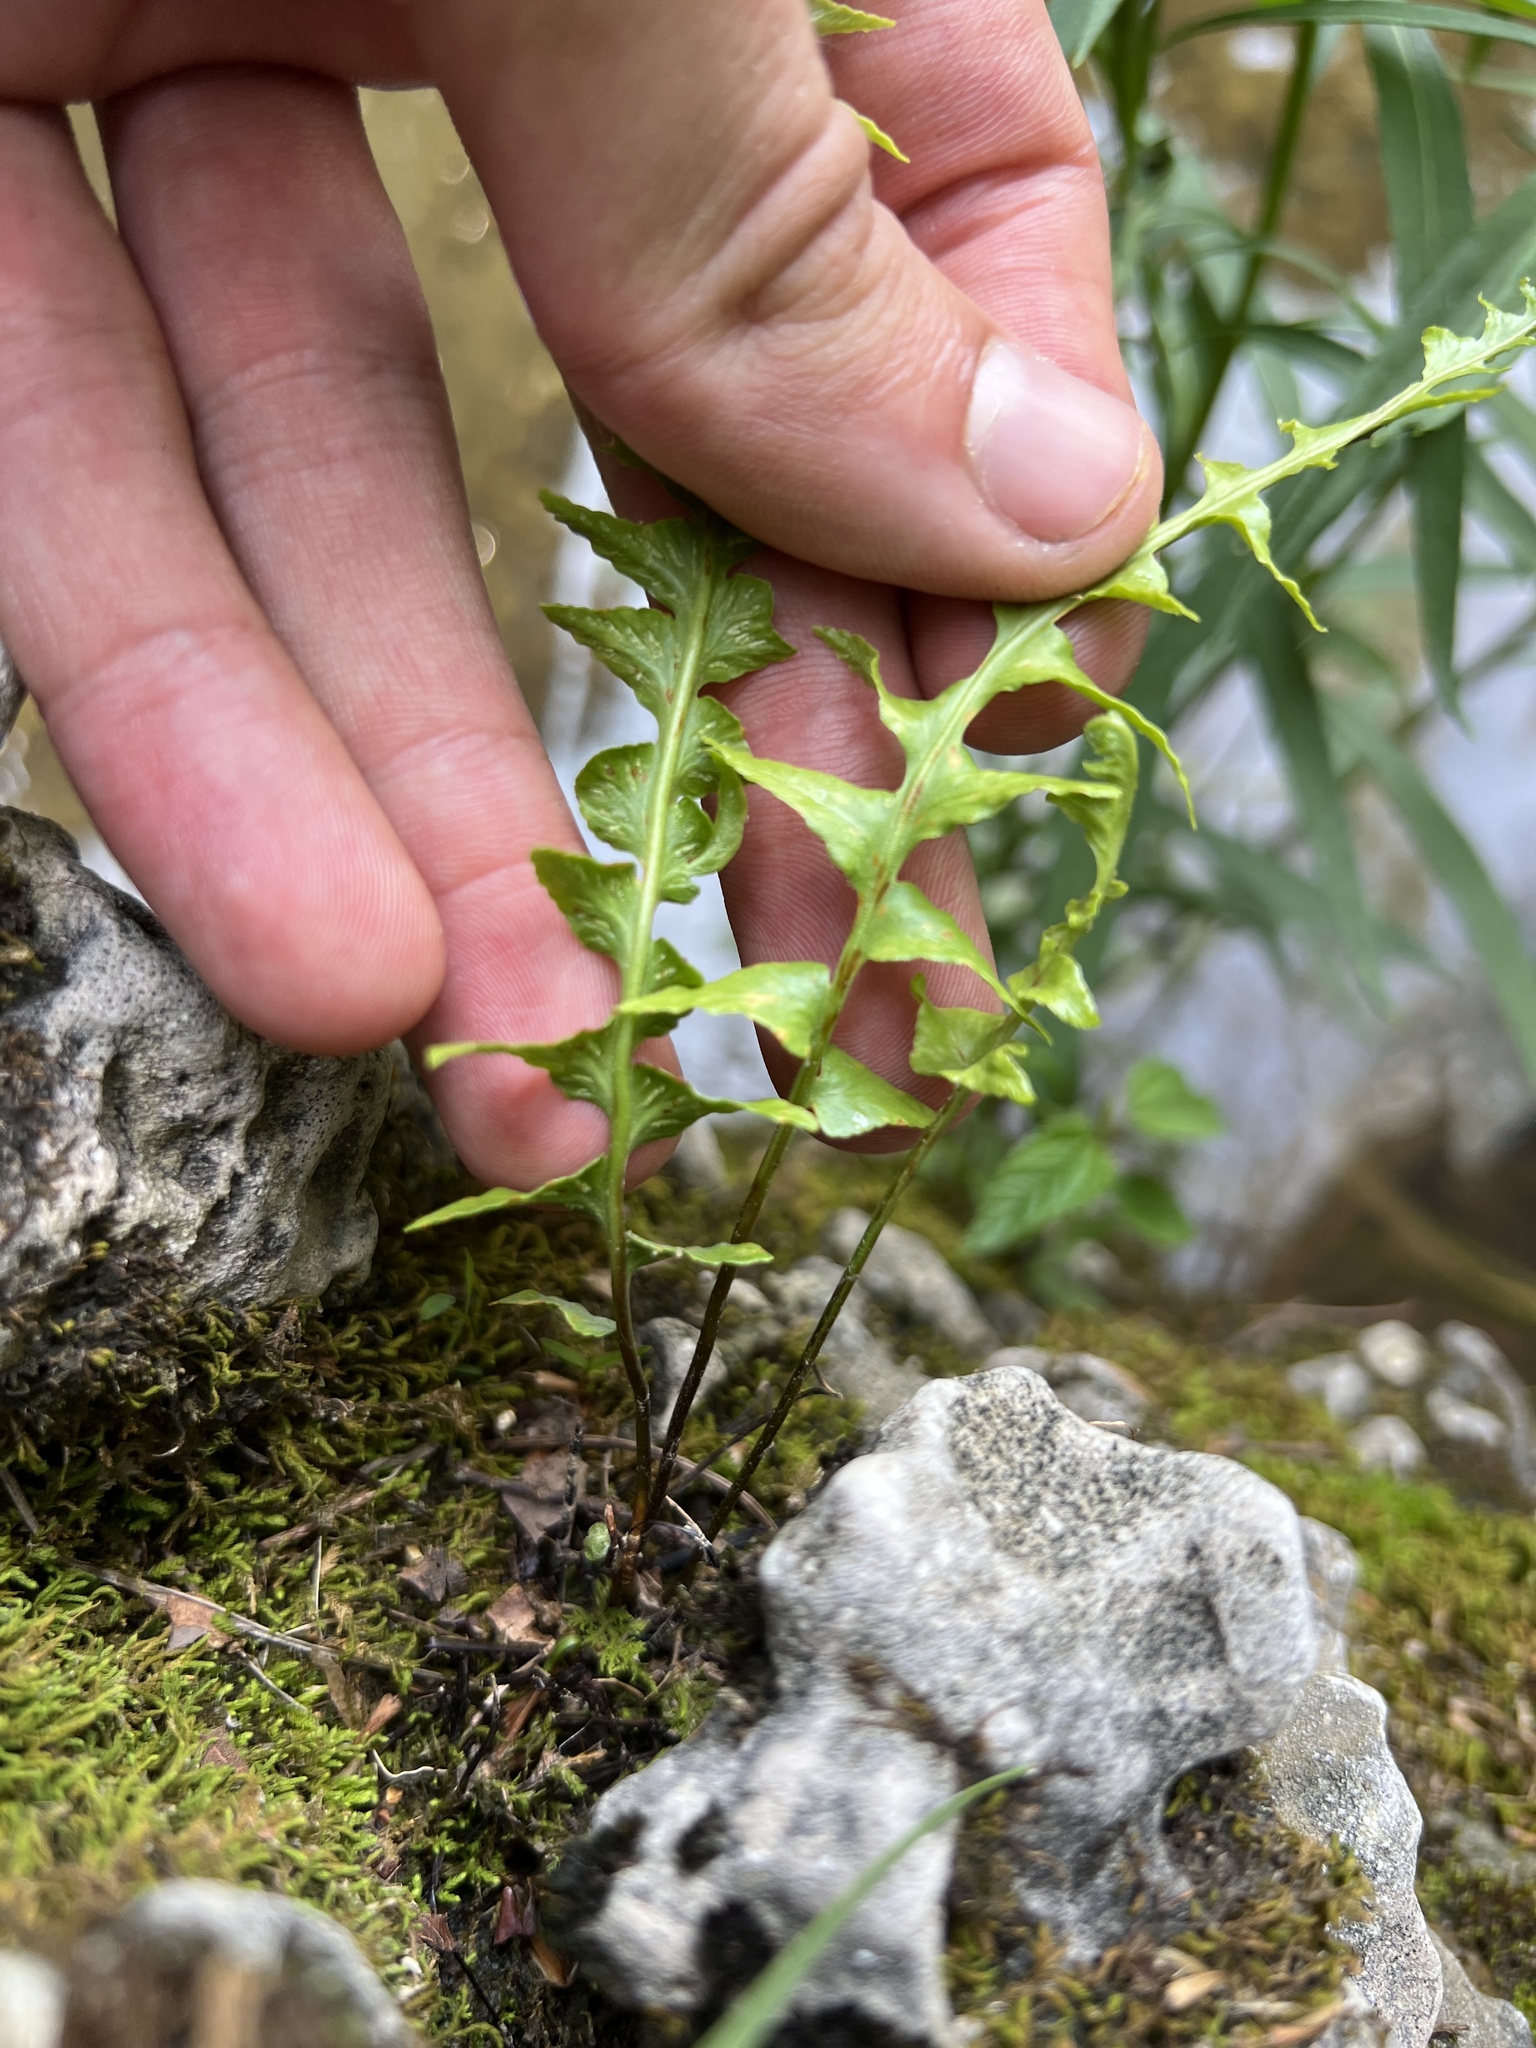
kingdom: Plantae
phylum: Tracheophyta
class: Polypodiopsida
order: Polypodiales
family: Aspleniaceae
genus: Asplenium
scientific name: Asplenium ebenoides
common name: Dragon-tail fern
